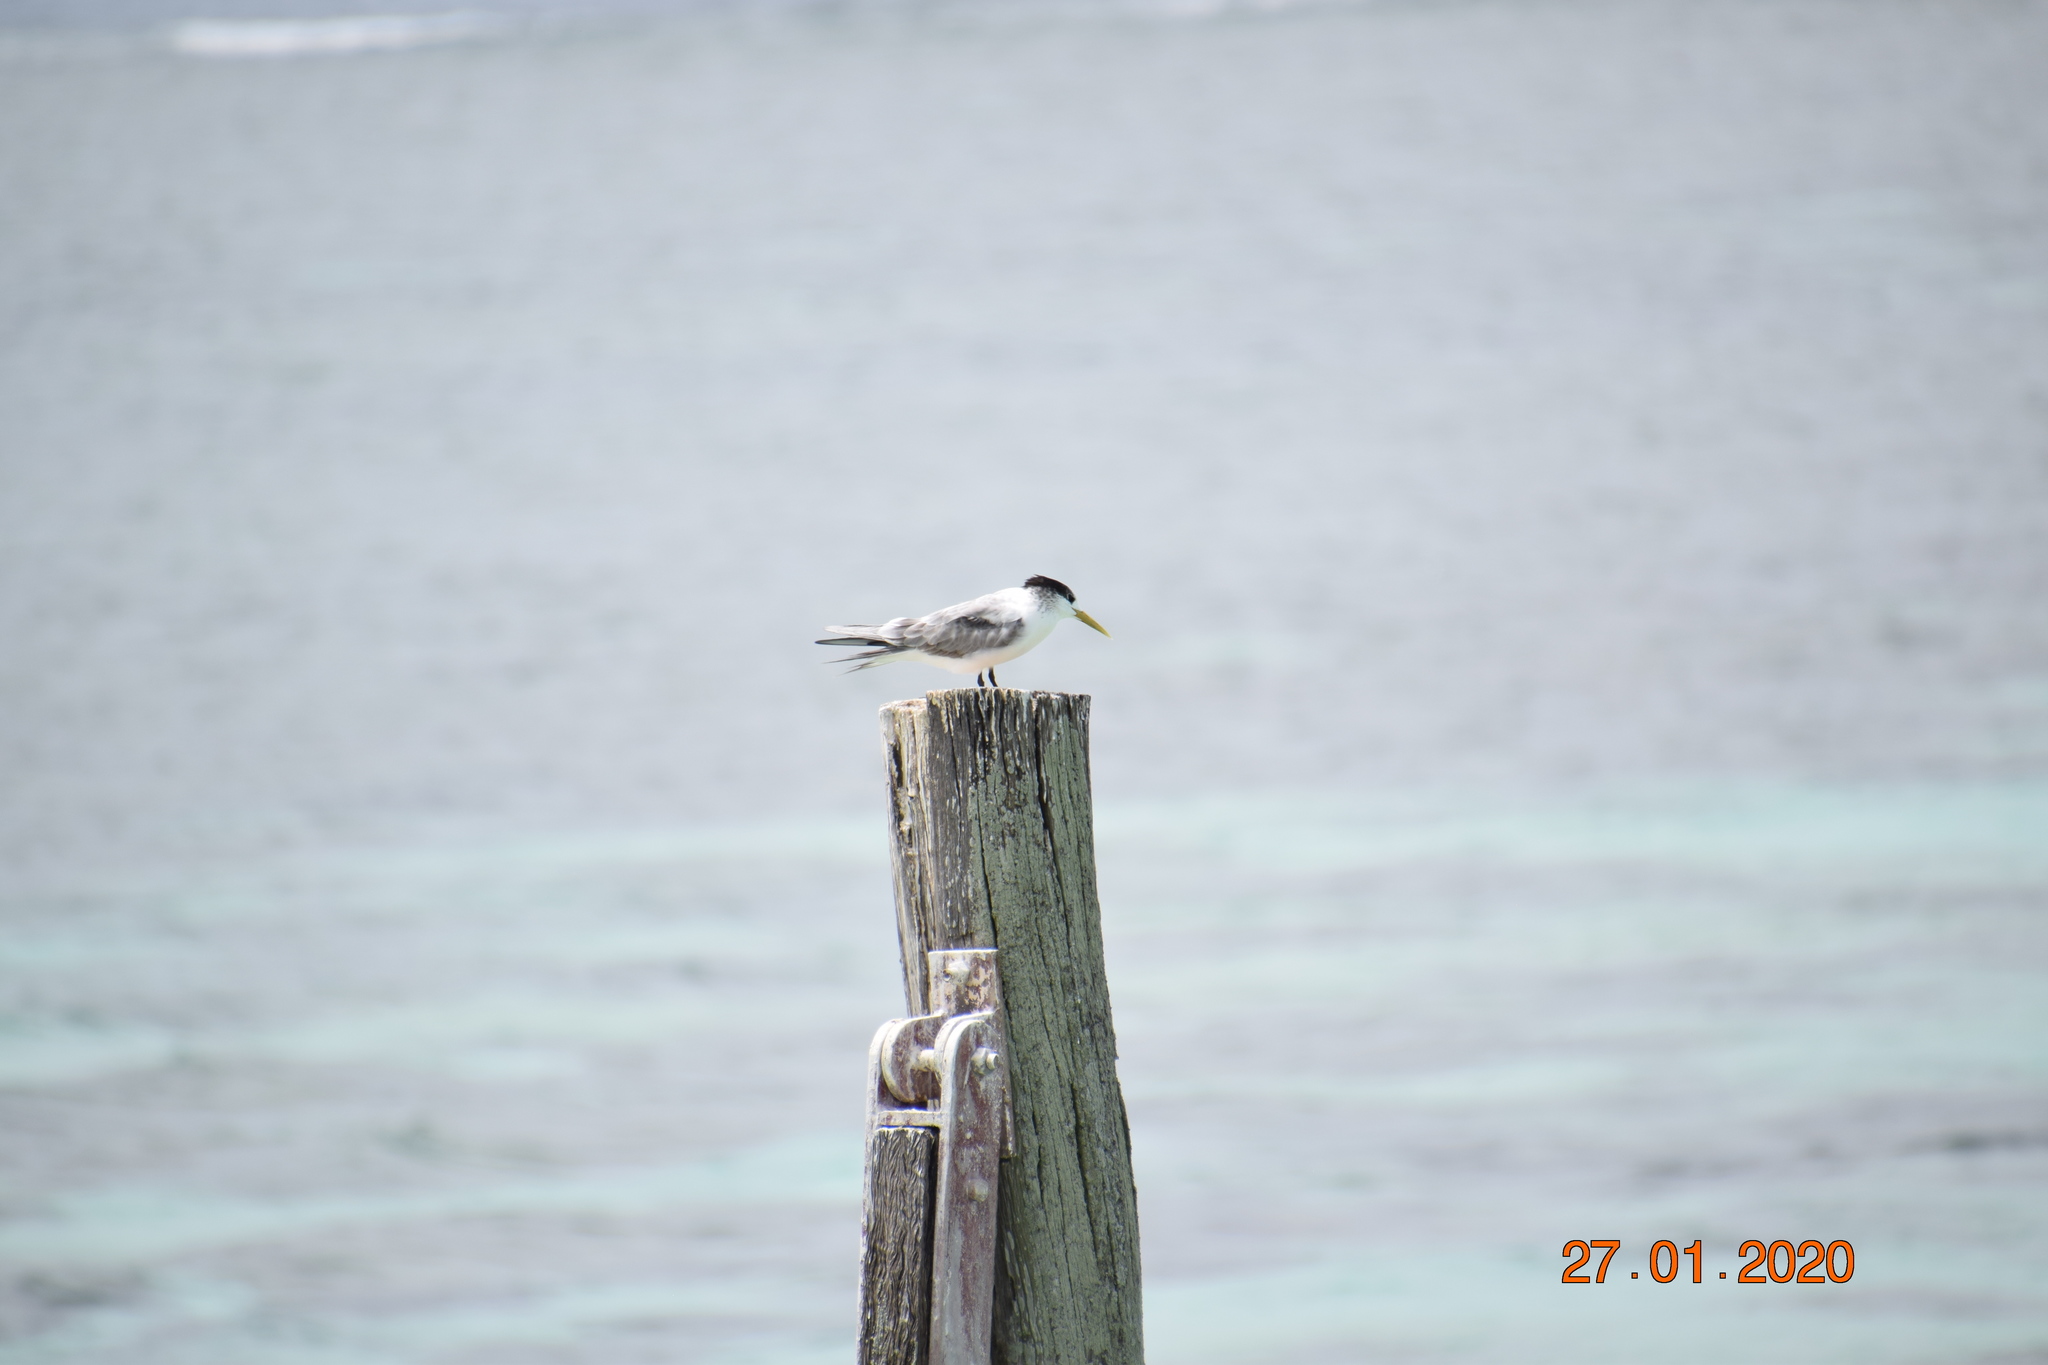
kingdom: Animalia
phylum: Chordata
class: Aves
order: Charadriiformes
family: Laridae
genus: Thalasseus
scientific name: Thalasseus bergii
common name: Greater crested tern
